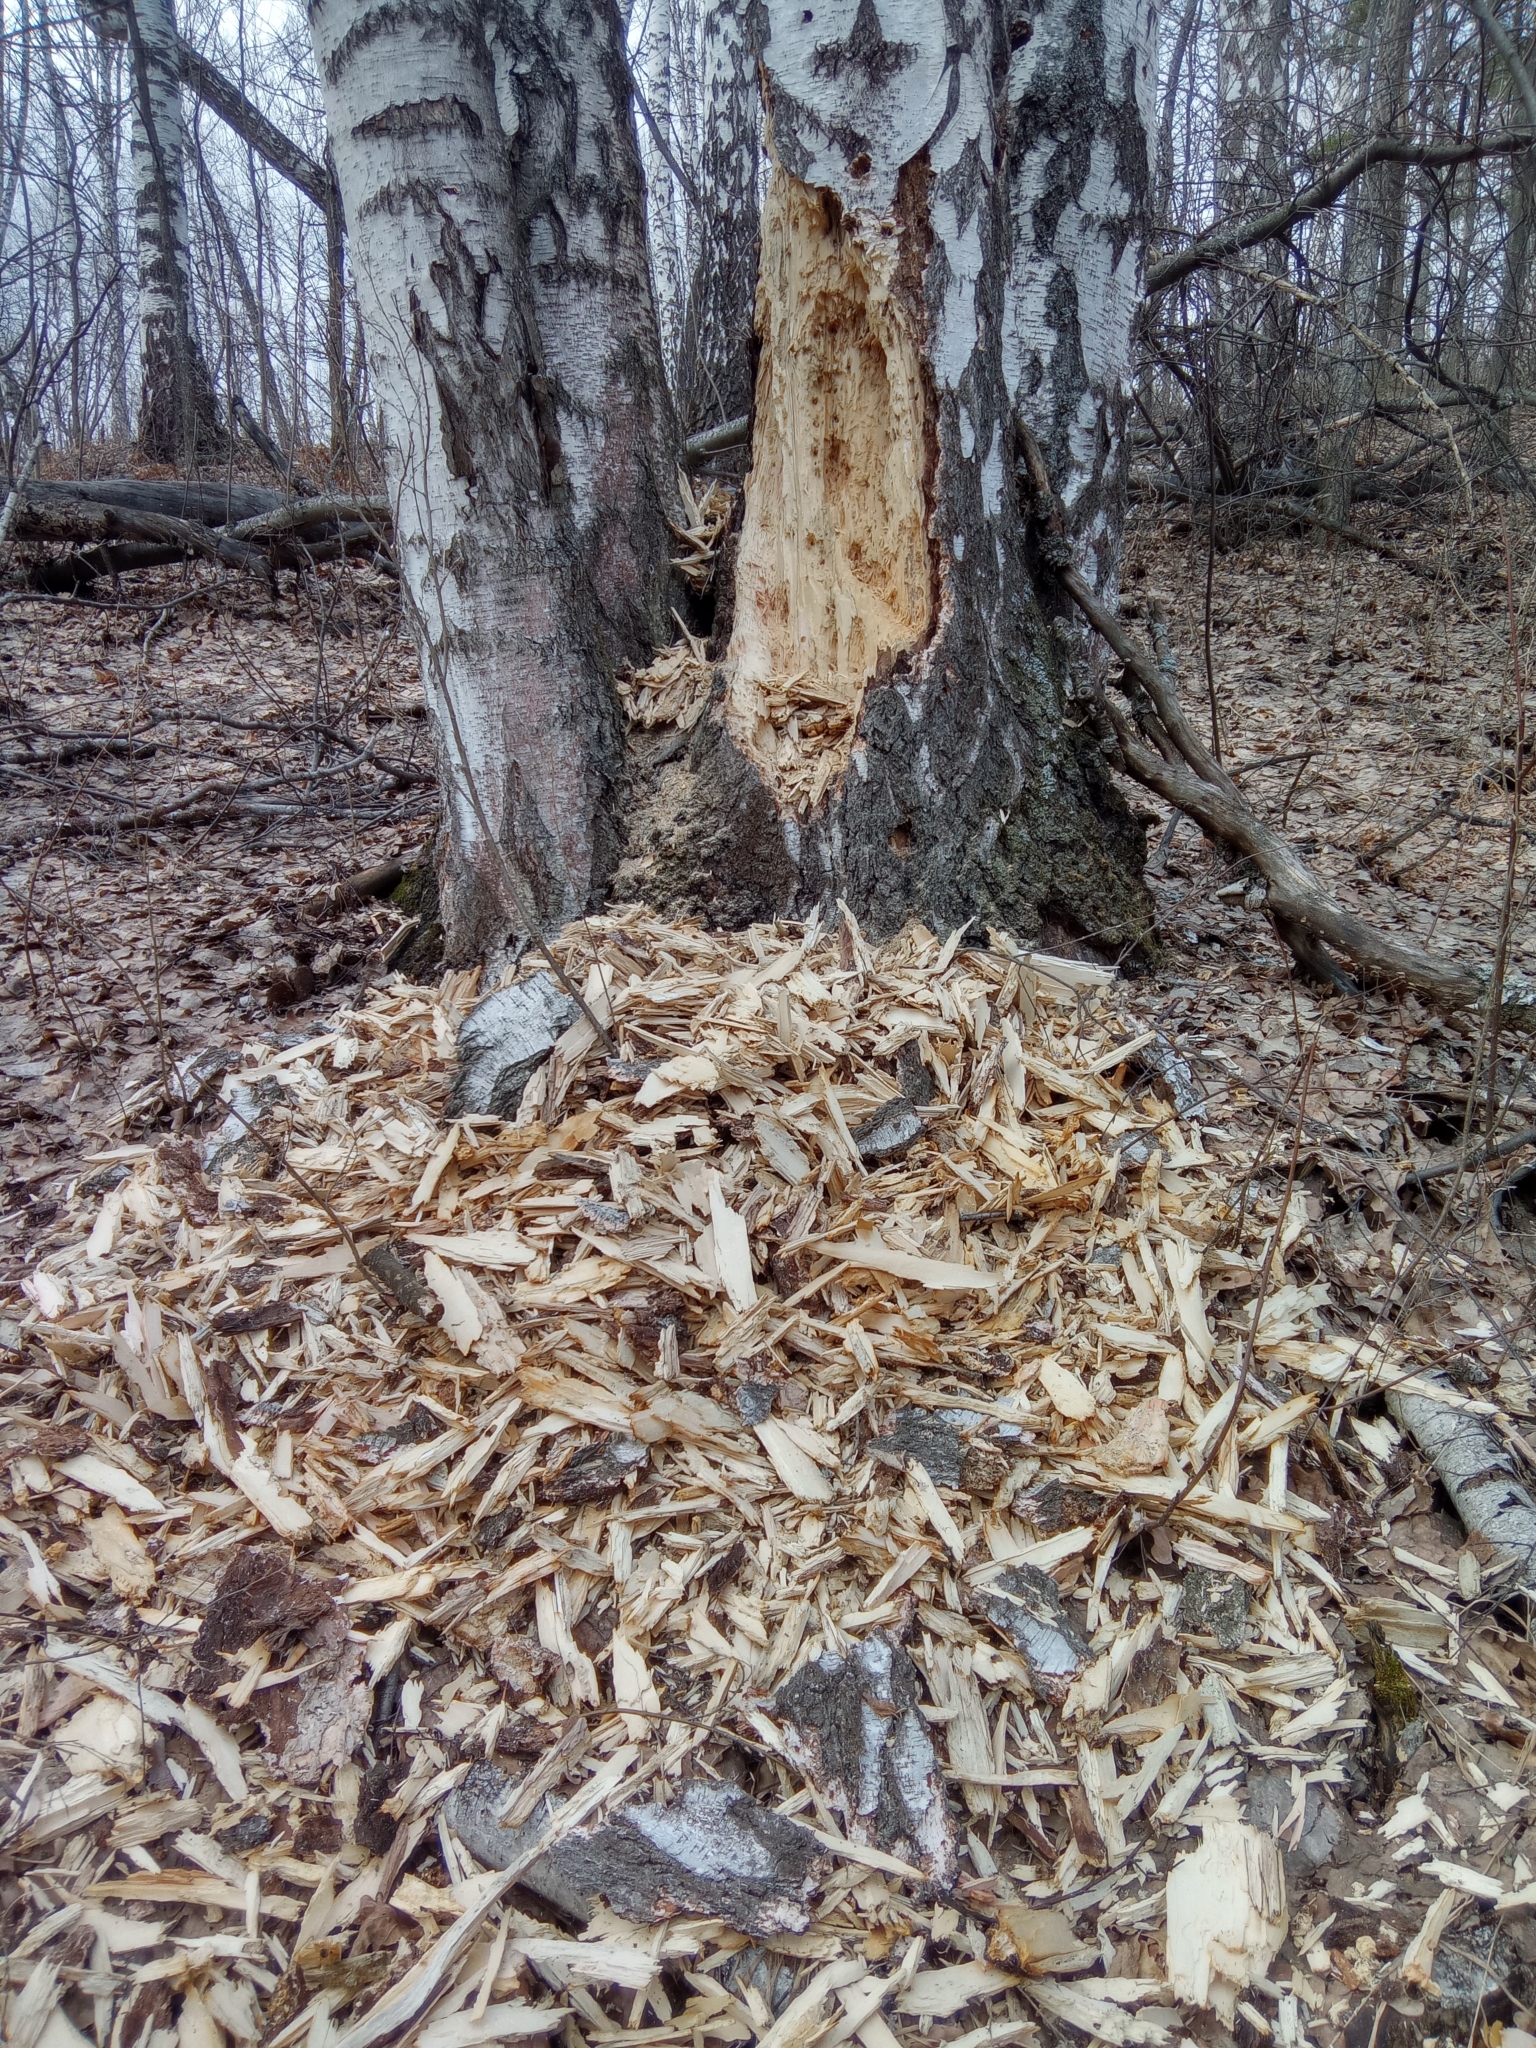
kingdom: Animalia
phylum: Chordata
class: Aves
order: Piciformes
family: Picidae
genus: Dryocopus
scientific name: Dryocopus martius
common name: Black woodpecker
